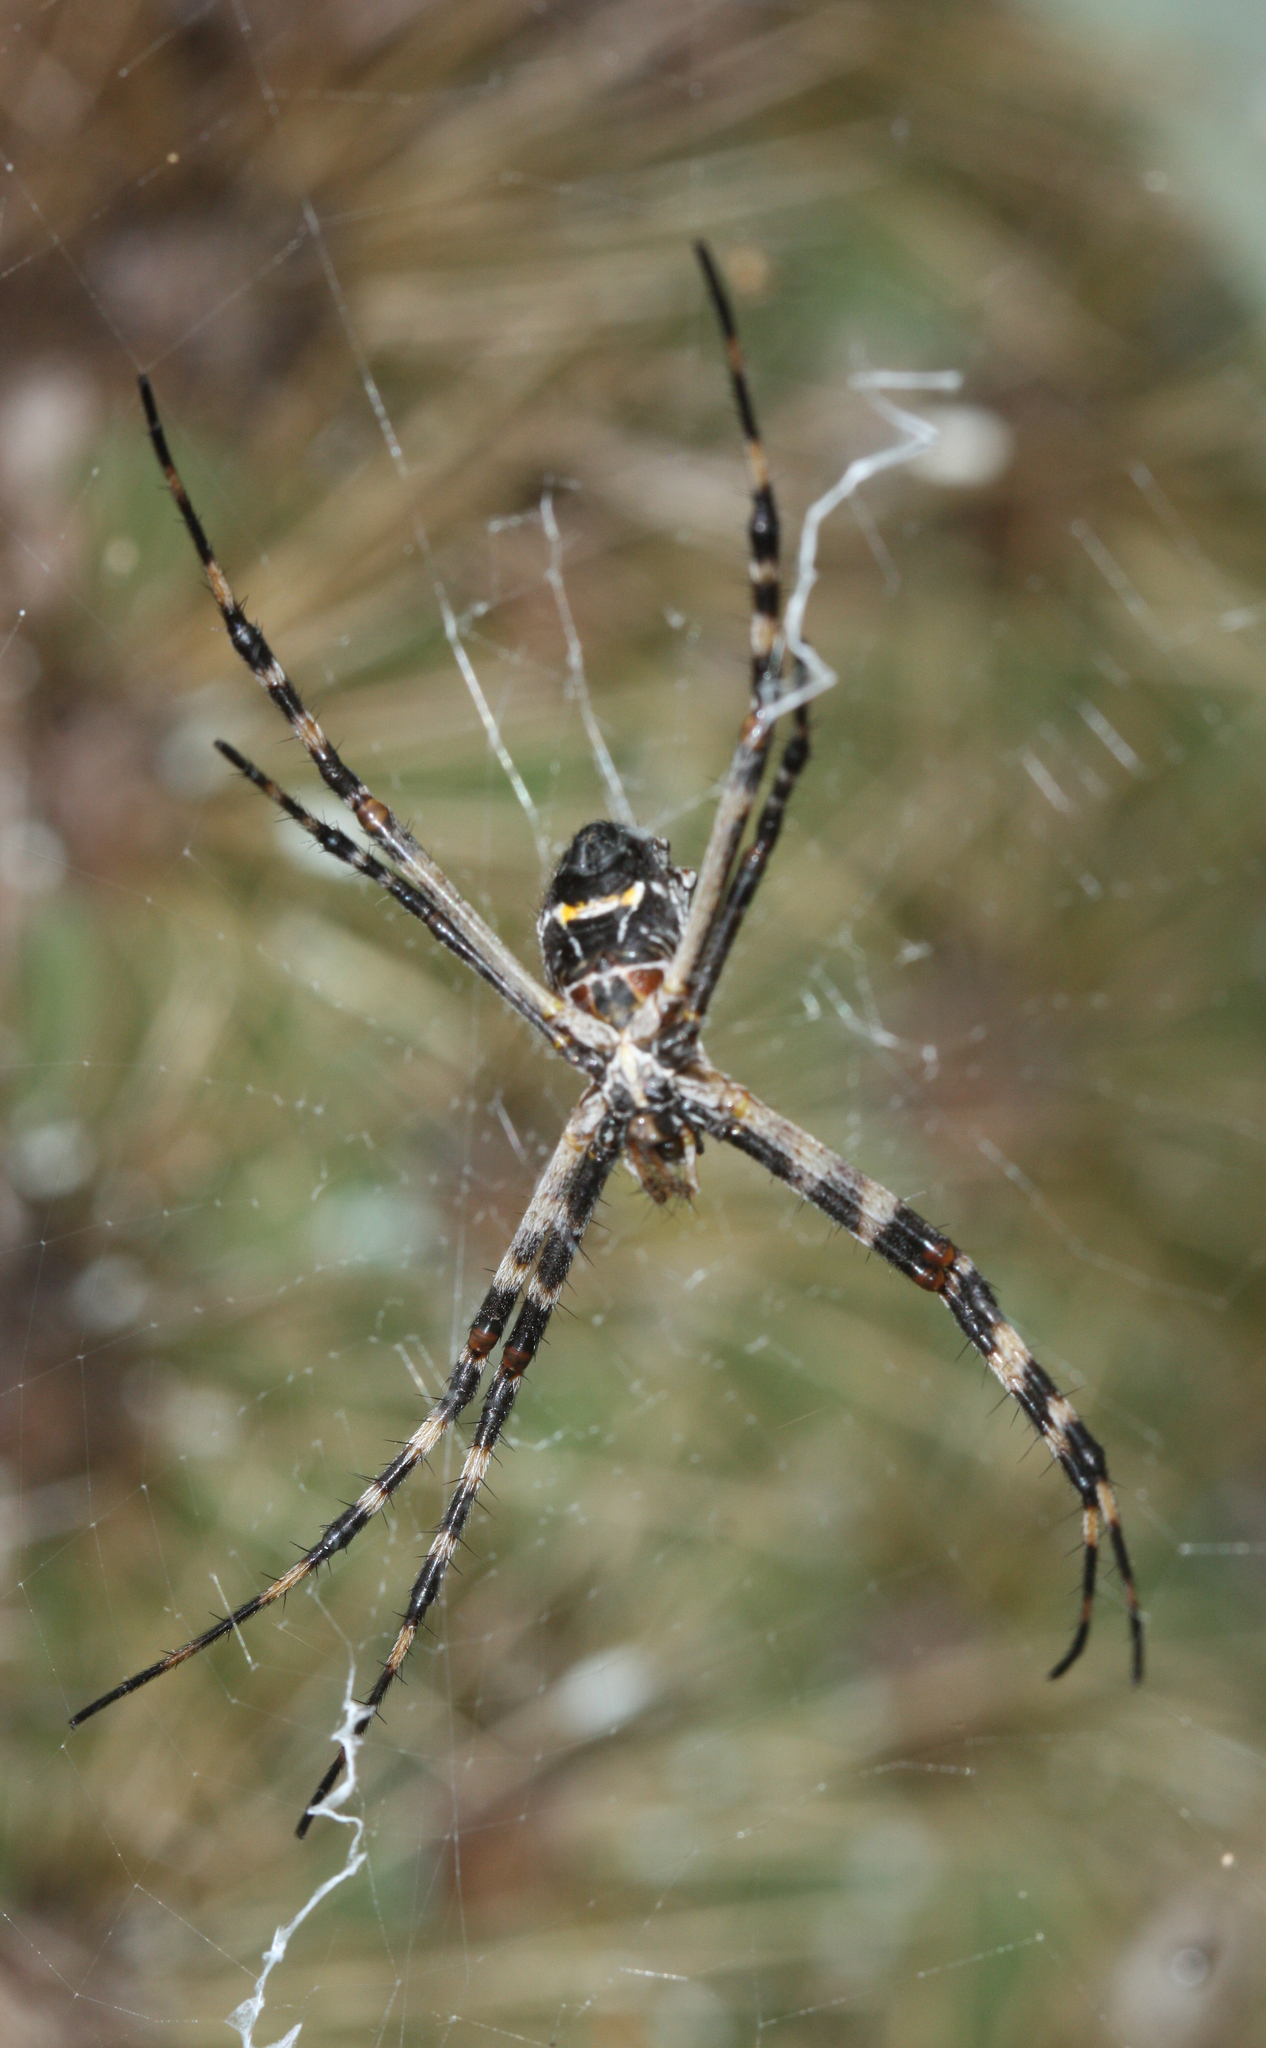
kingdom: Animalia
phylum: Arthropoda
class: Arachnida
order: Araneae
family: Araneidae
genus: Argiope
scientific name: Argiope argentata
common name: Orb weavers
